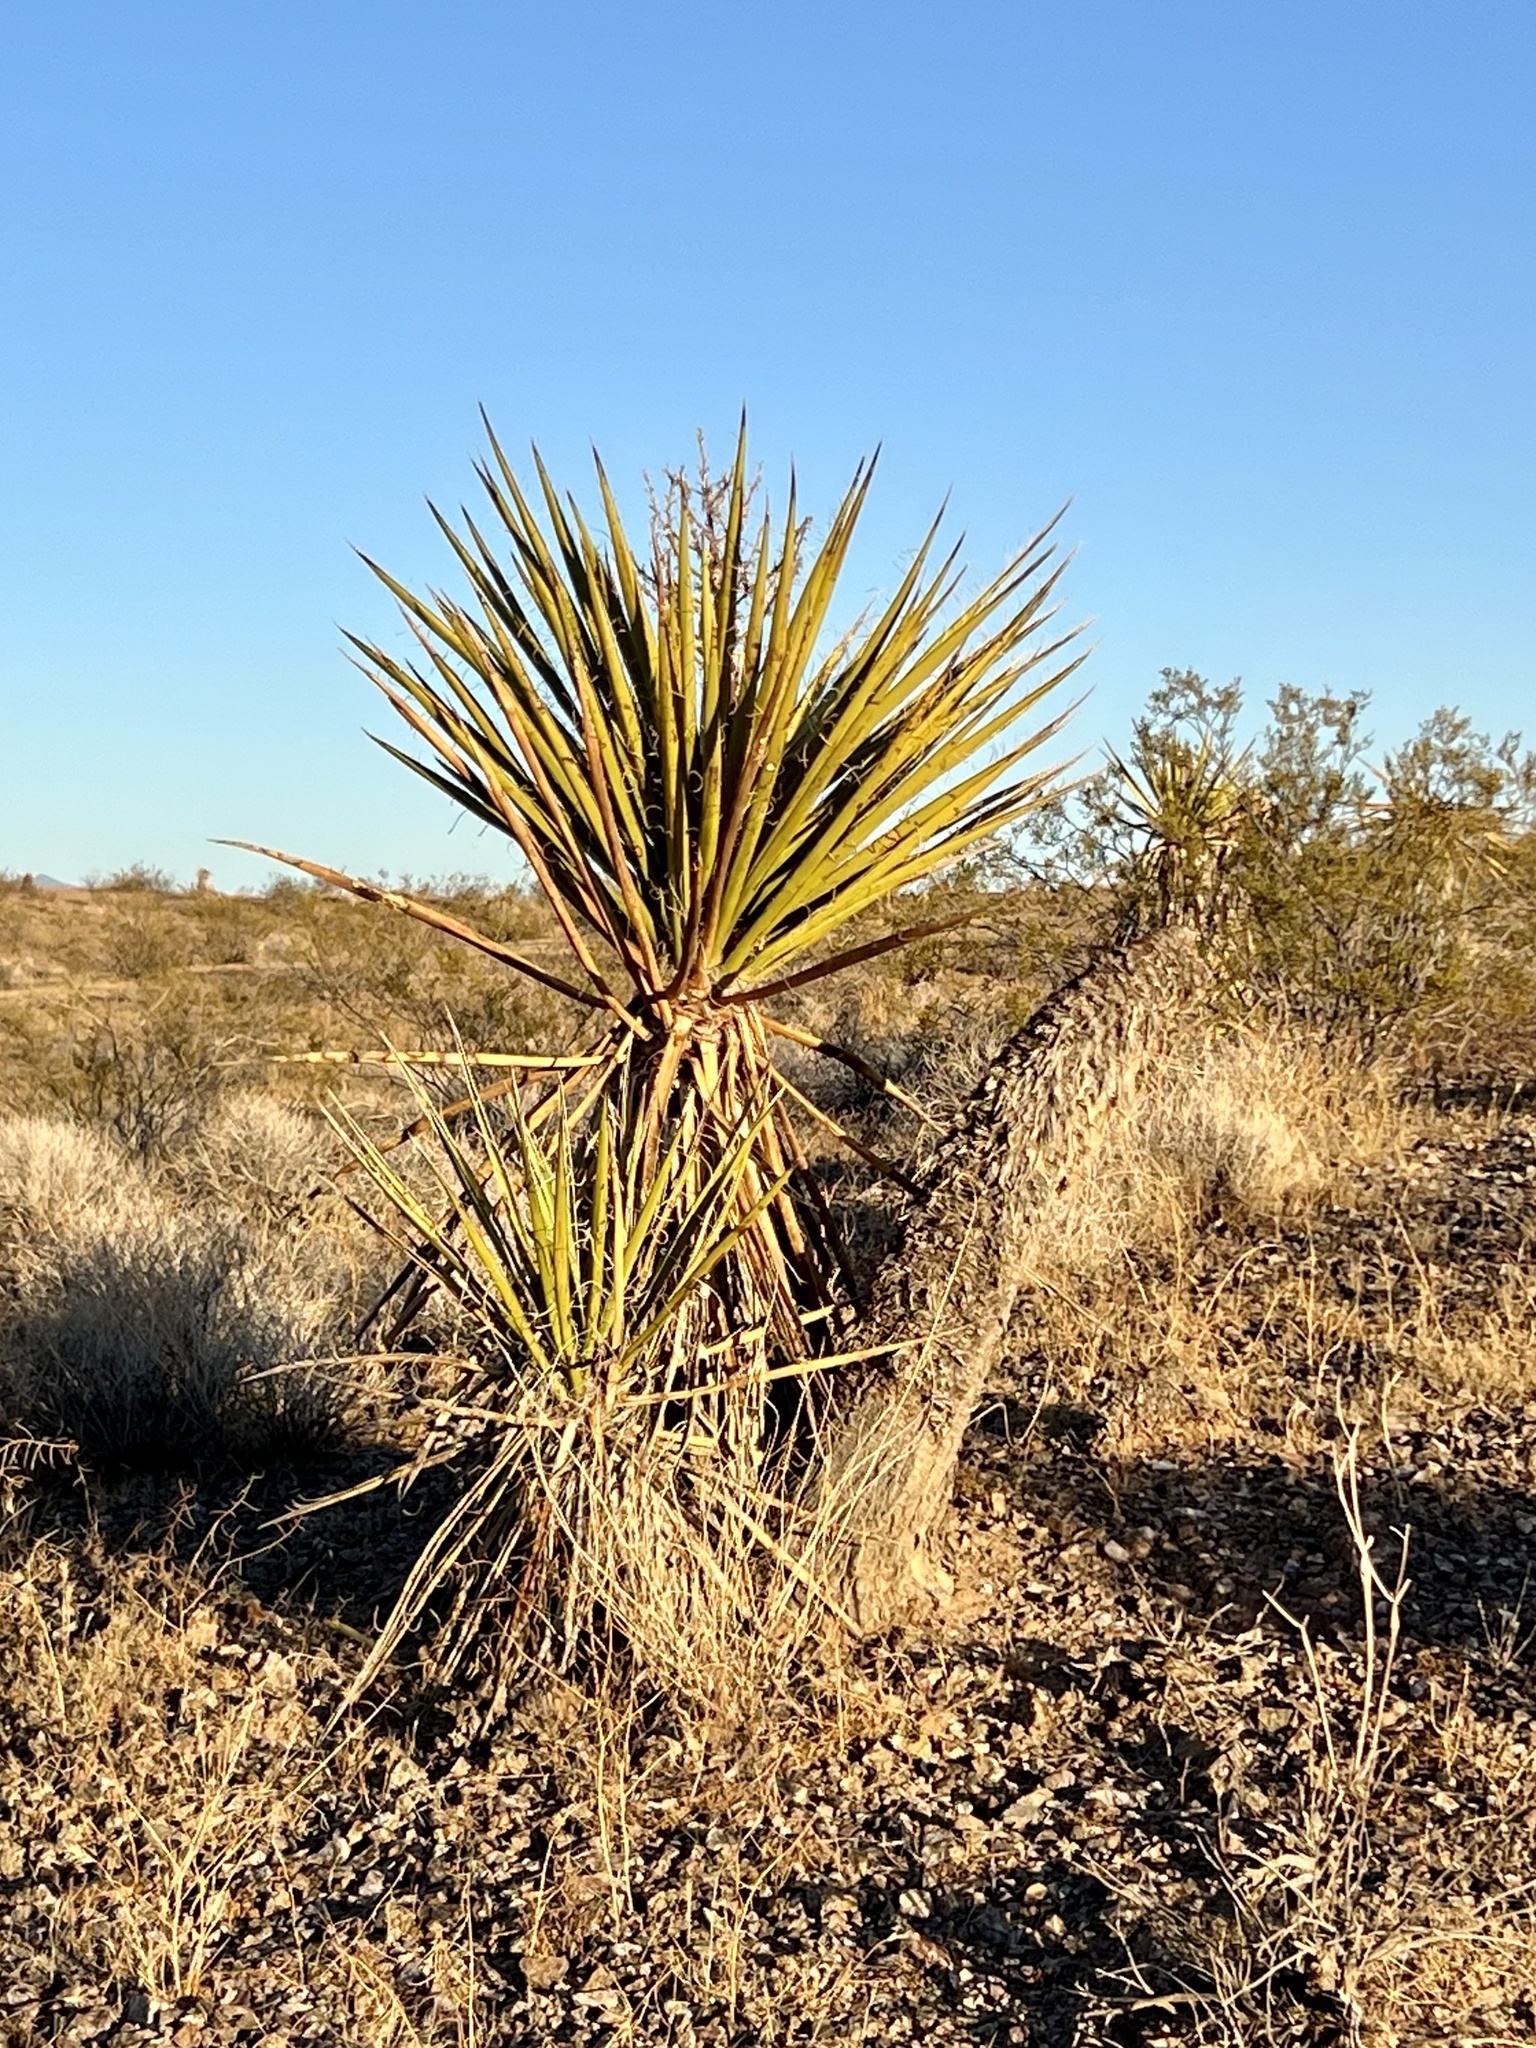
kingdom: Plantae
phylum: Tracheophyta
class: Liliopsida
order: Asparagales
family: Asparagaceae
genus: Yucca
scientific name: Yucca schidigera
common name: Mojave yucca
